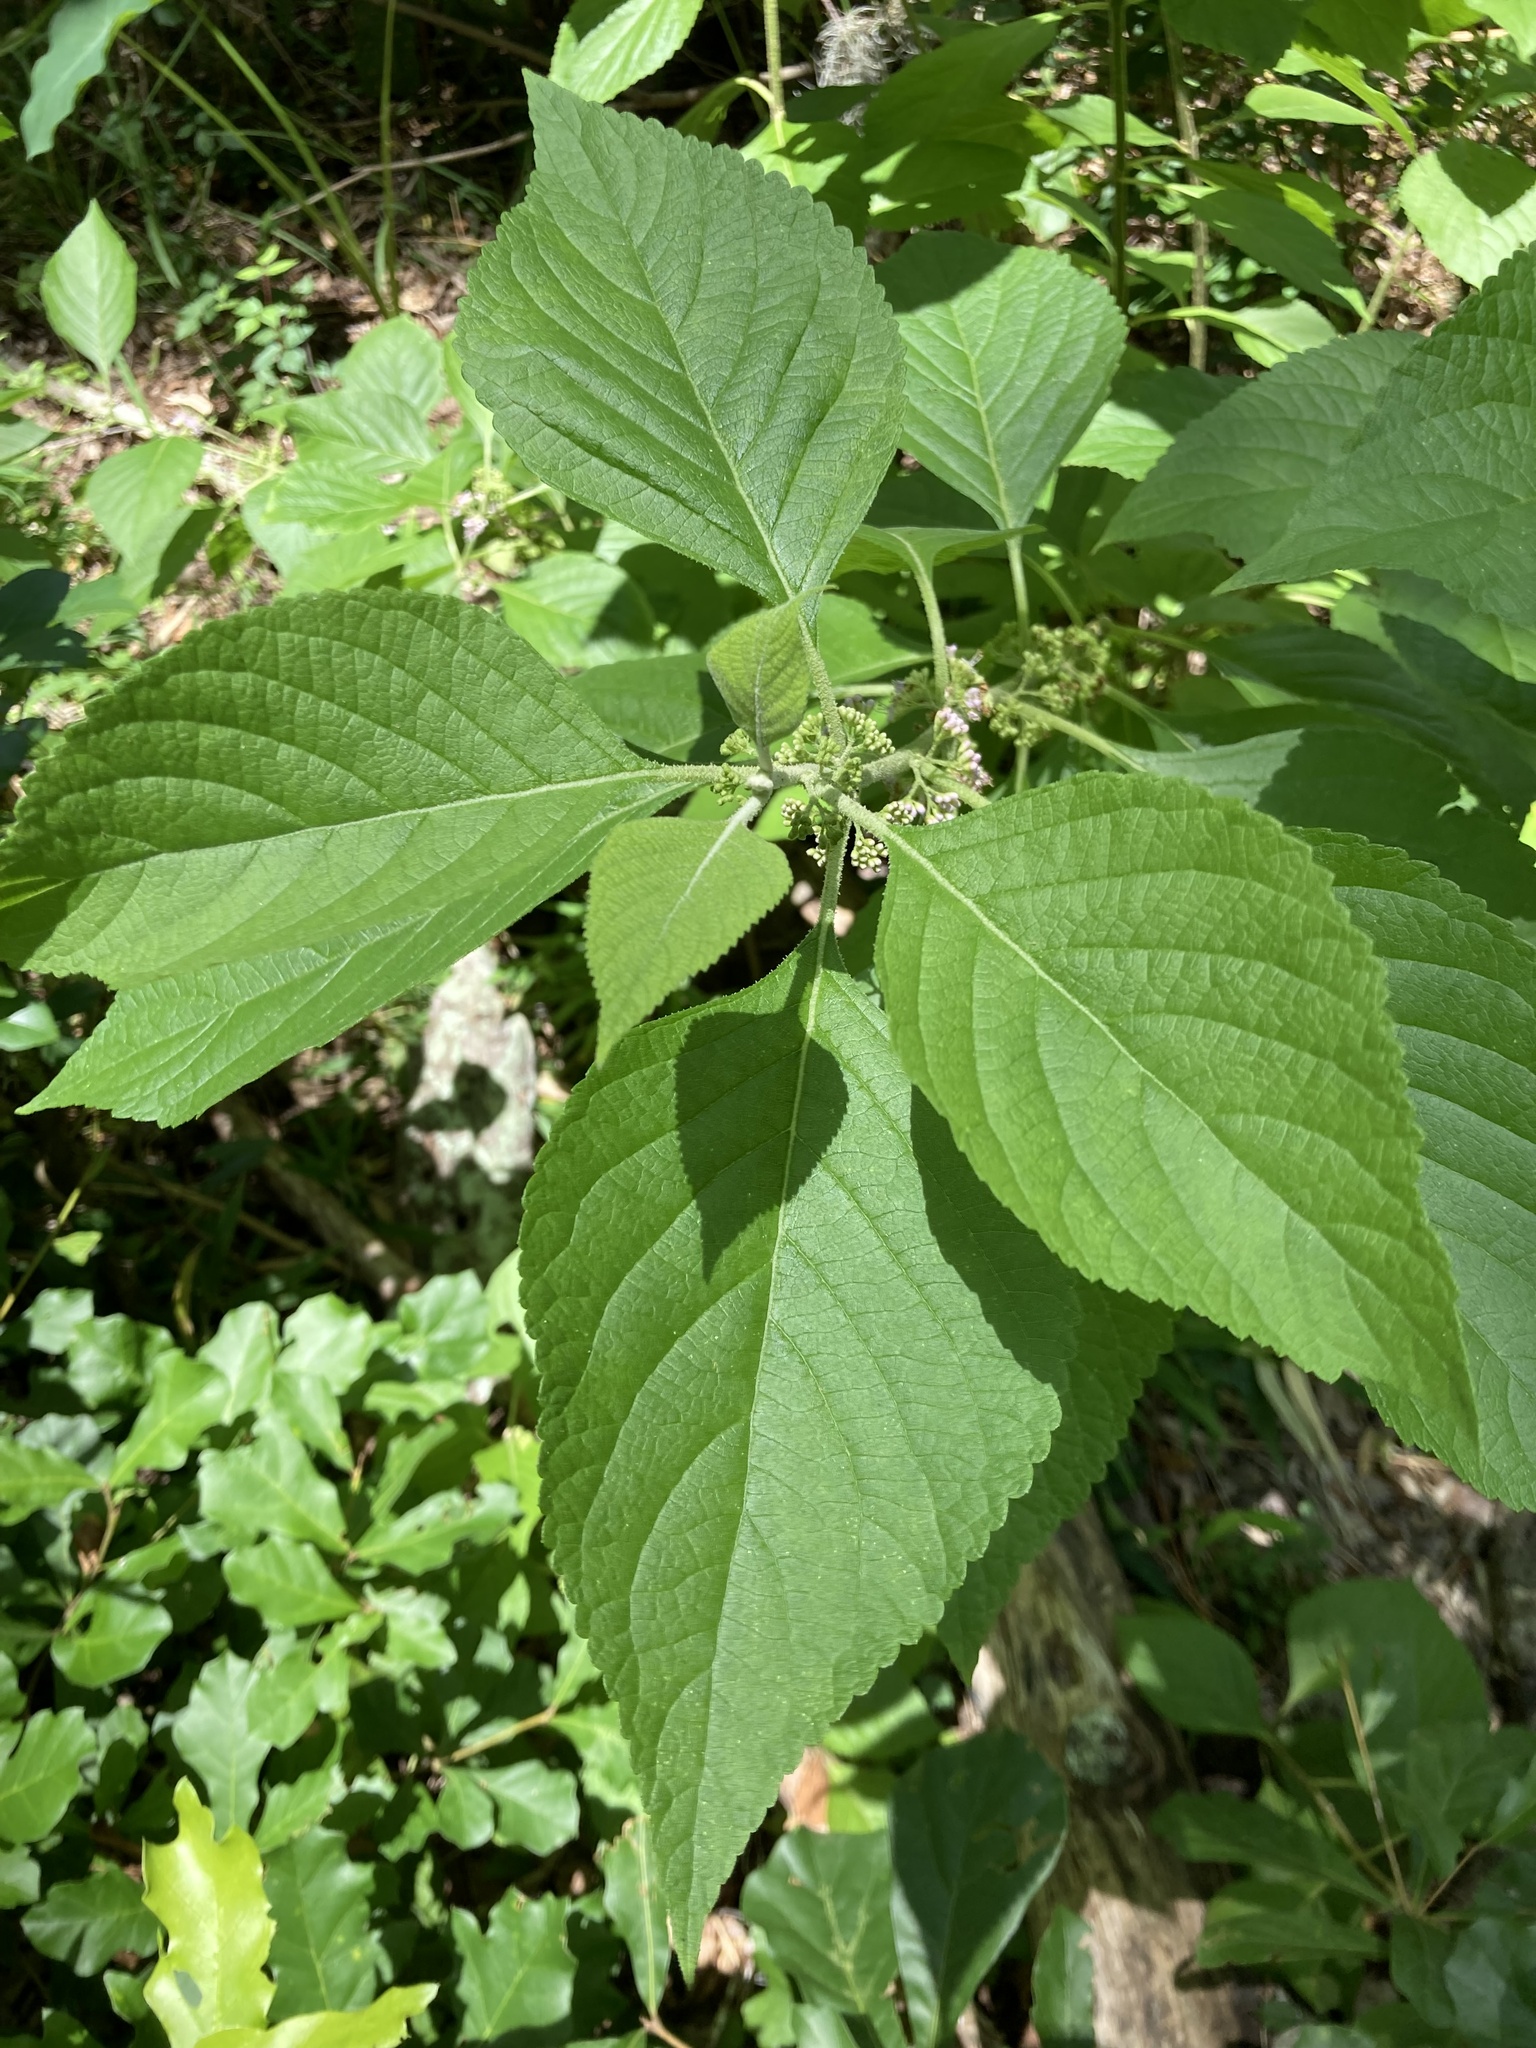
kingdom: Plantae
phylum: Tracheophyta
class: Magnoliopsida
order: Lamiales
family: Lamiaceae
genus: Callicarpa
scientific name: Callicarpa americana
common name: American beautyberry
